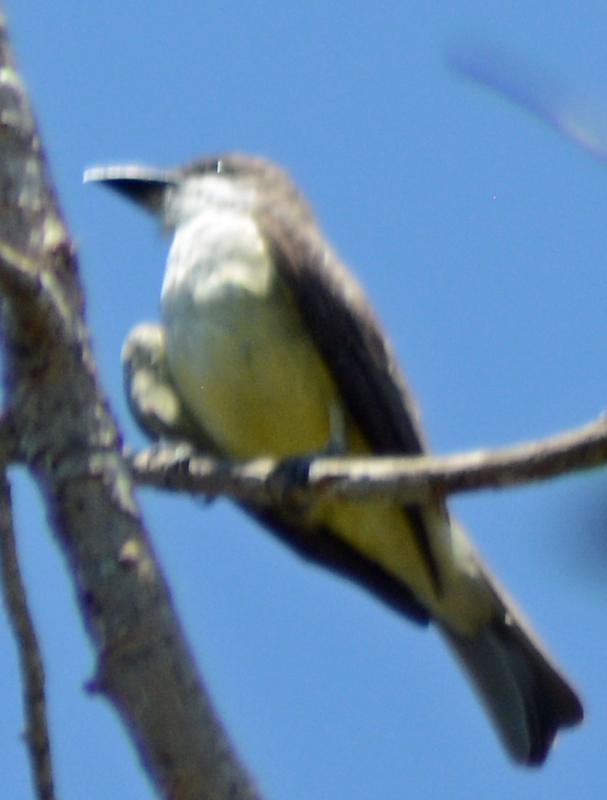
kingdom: Animalia
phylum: Chordata
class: Aves
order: Passeriformes
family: Tyrannidae
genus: Tyrannus
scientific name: Tyrannus crassirostris
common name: Thick-billed kingbird
